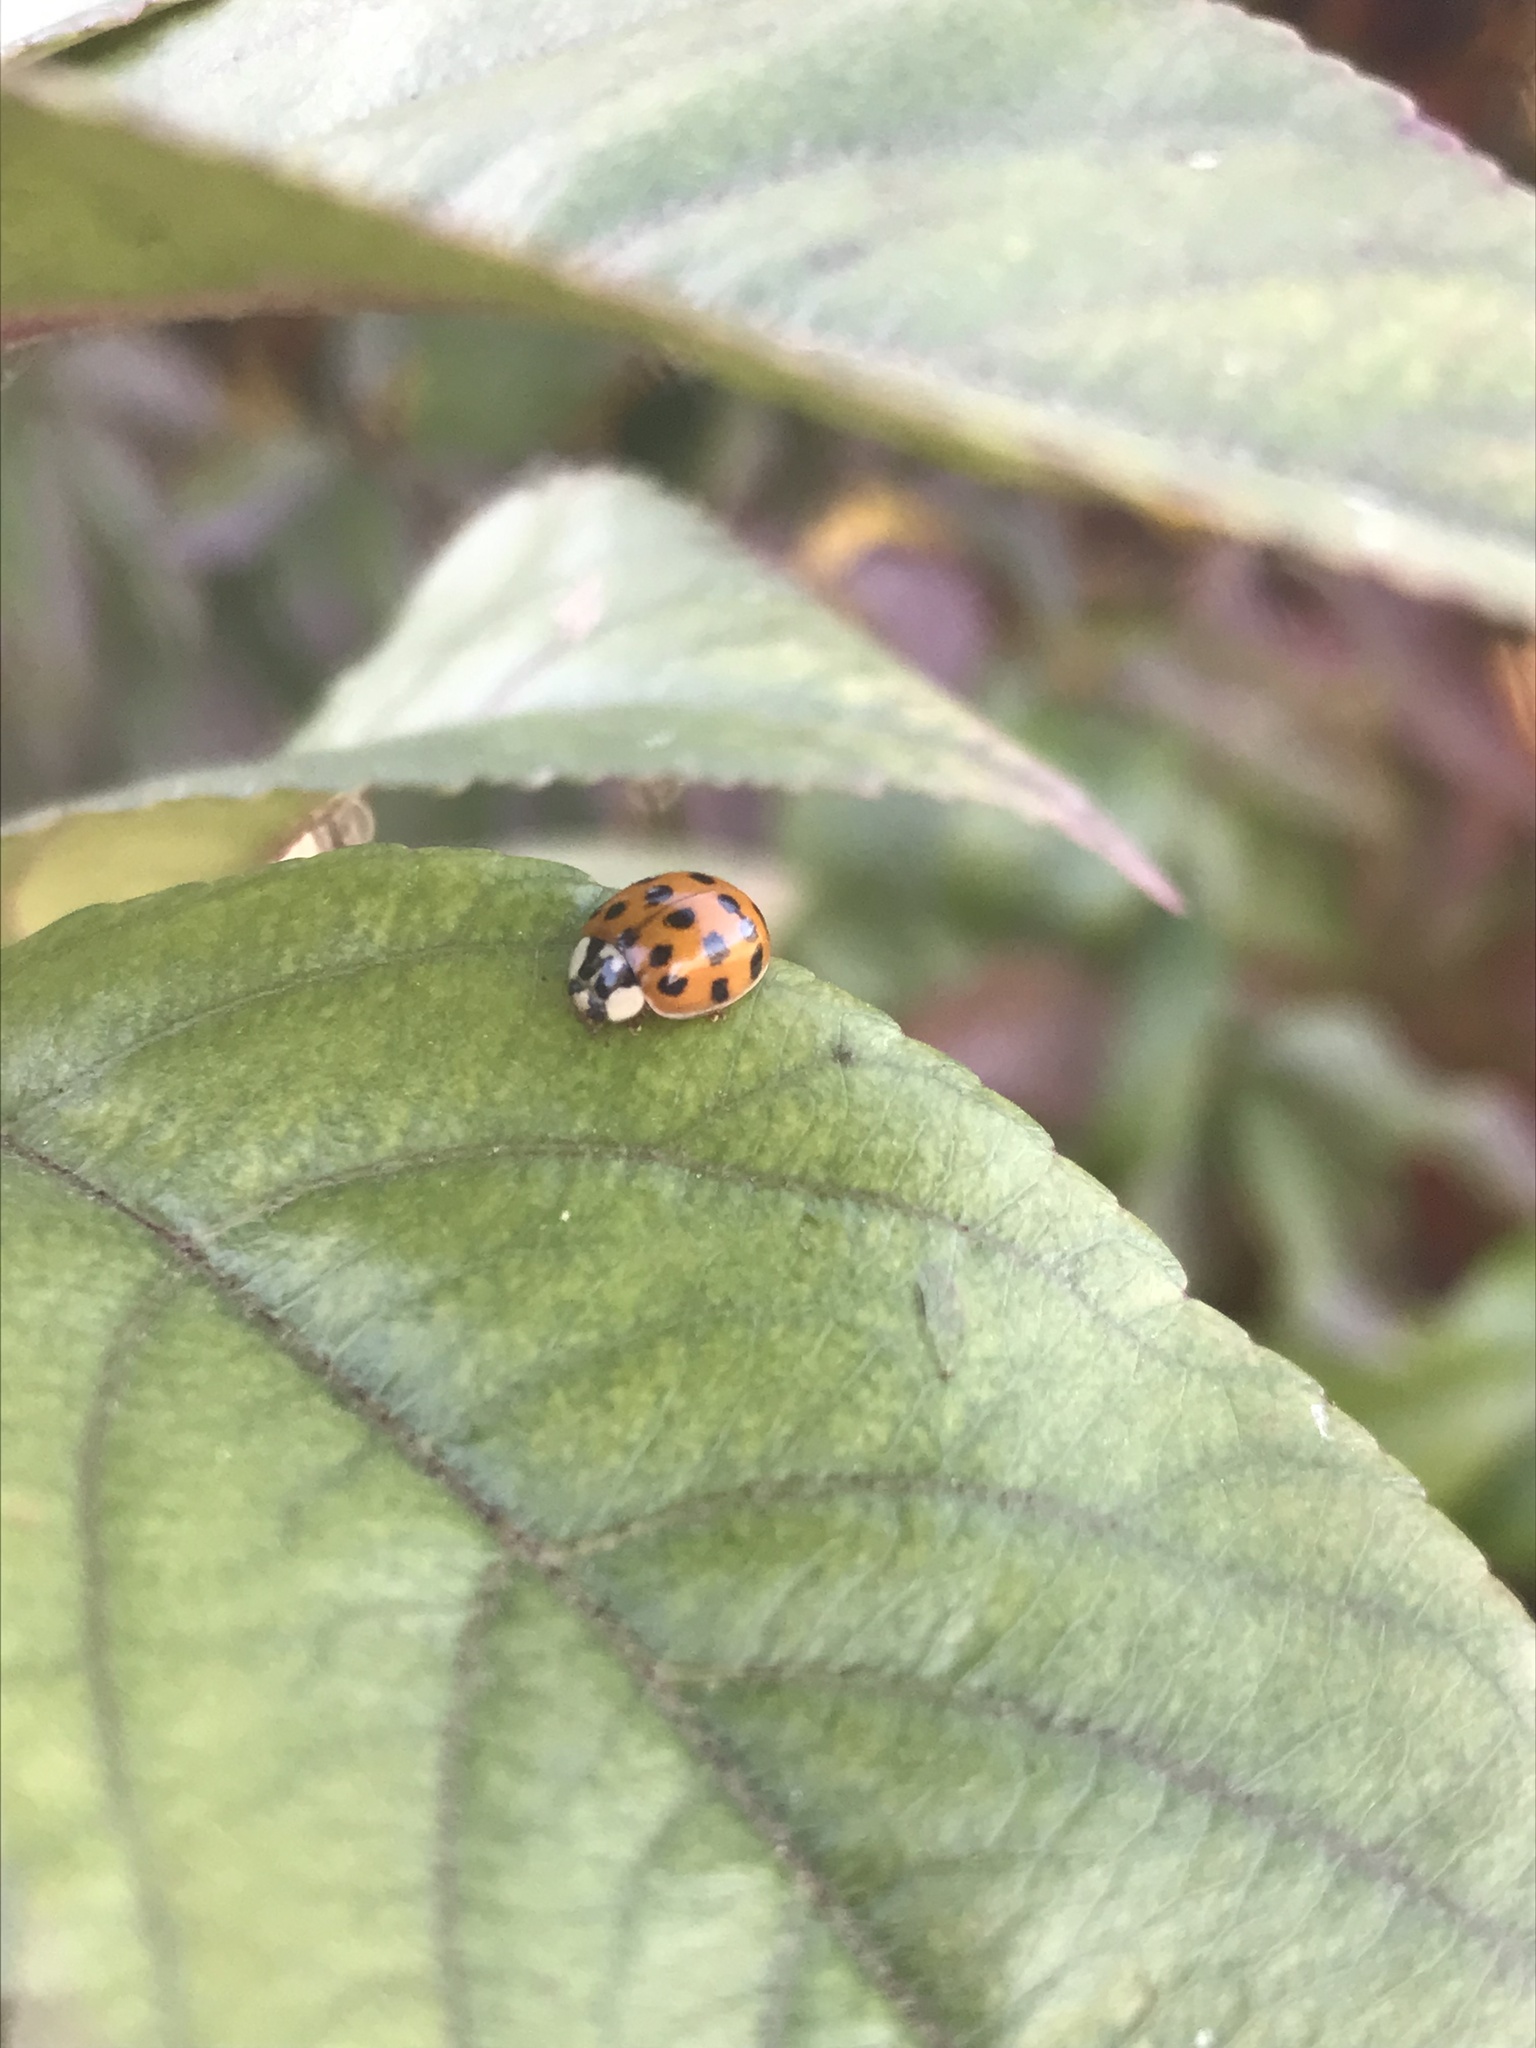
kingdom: Animalia
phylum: Arthropoda
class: Insecta
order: Coleoptera
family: Coccinellidae
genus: Harmonia
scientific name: Harmonia axyridis
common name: Harlequin ladybird
